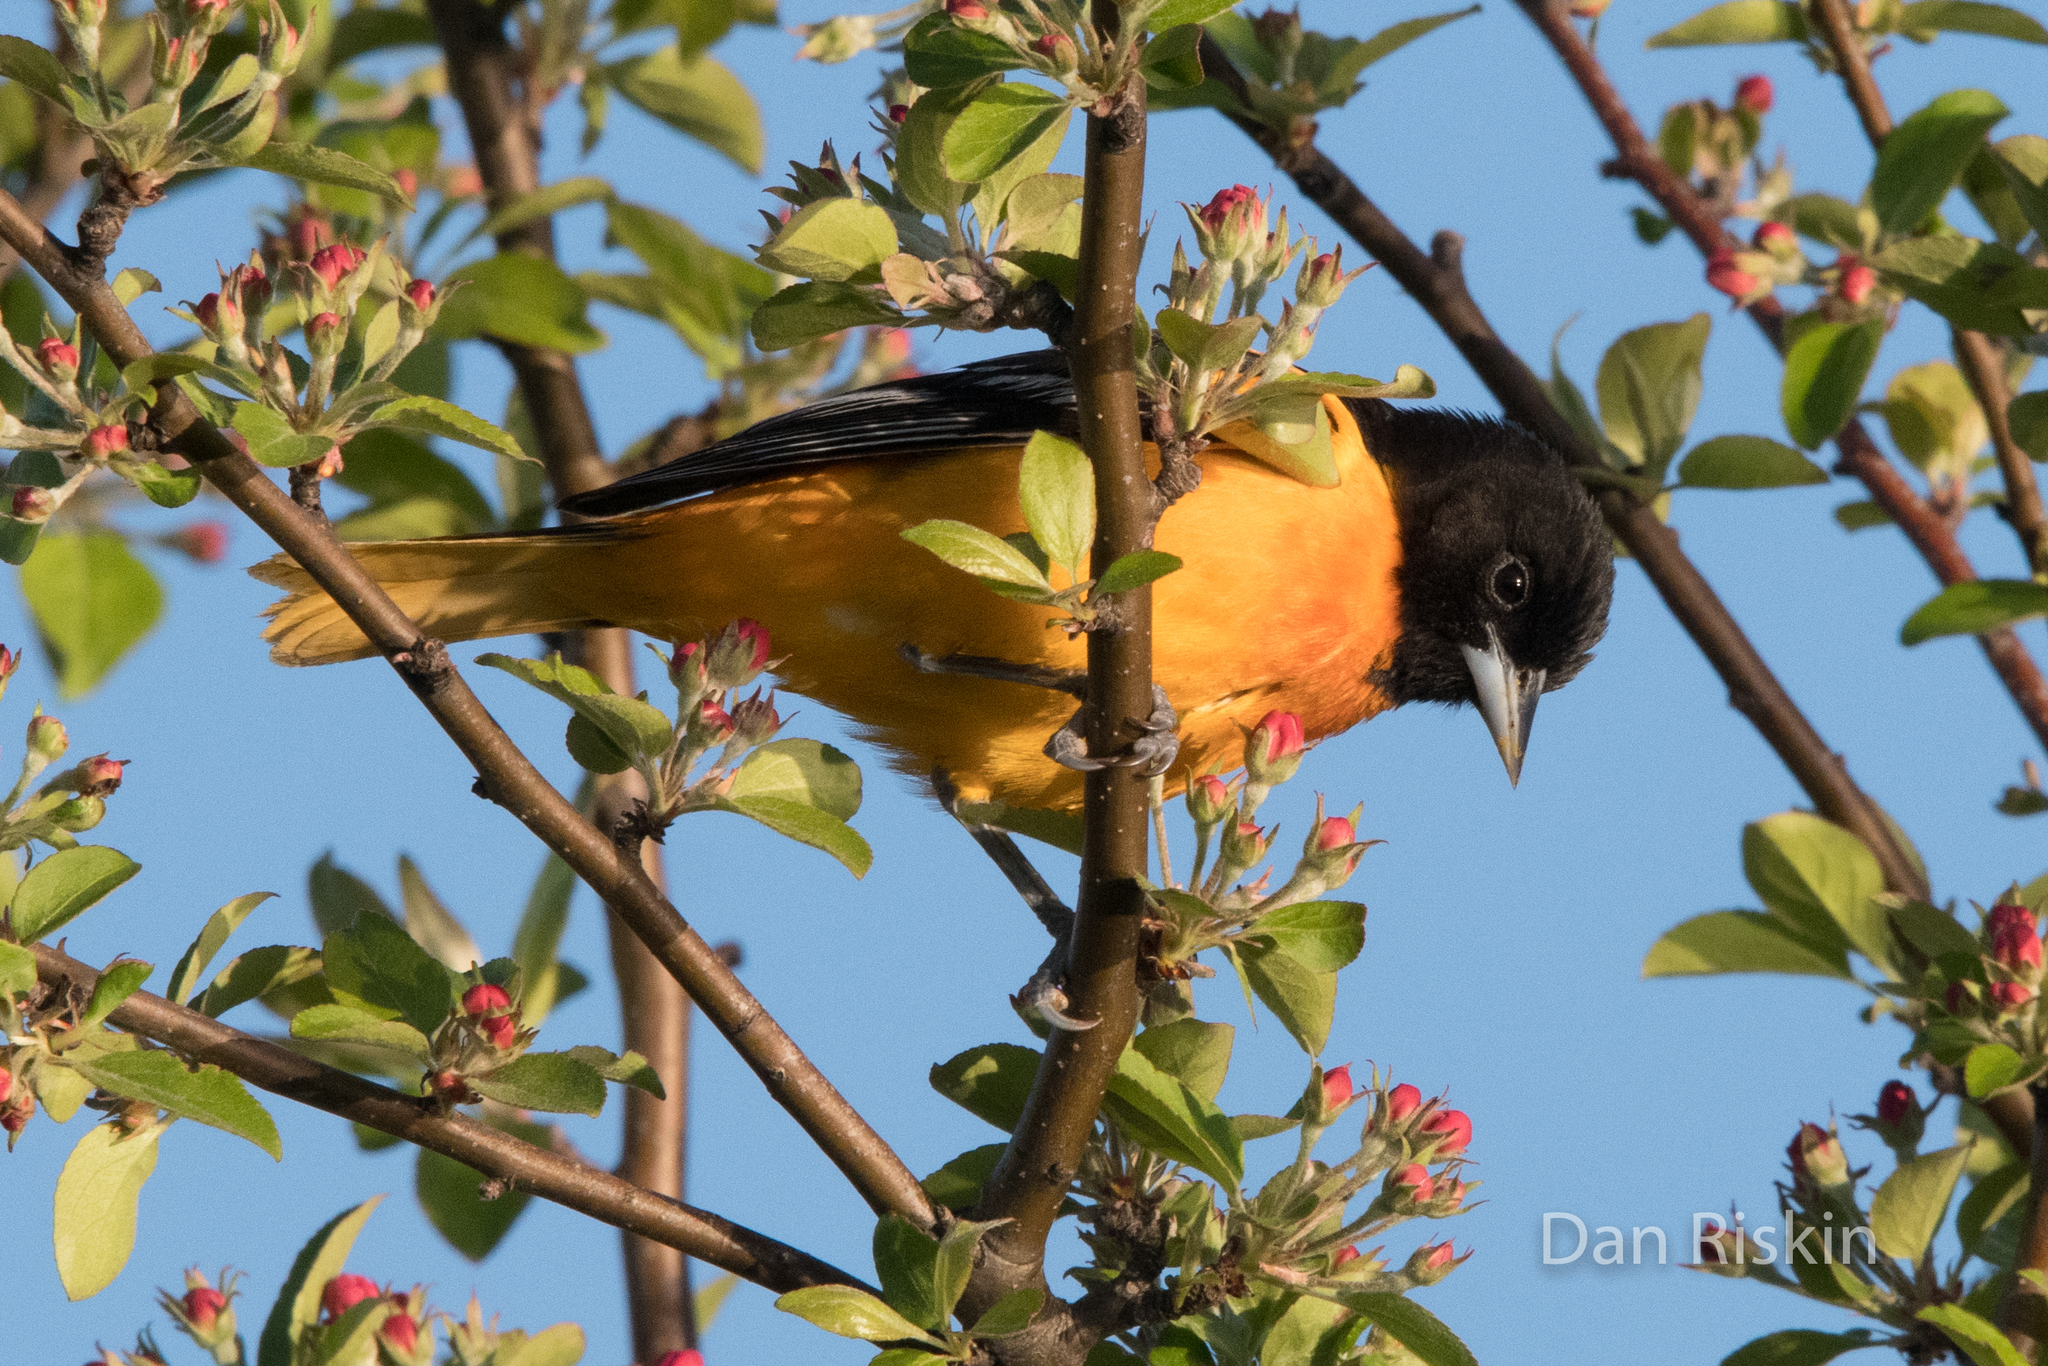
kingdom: Animalia
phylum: Chordata
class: Aves
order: Passeriformes
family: Icteridae
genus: Icterus
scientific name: Icterus galbula
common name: Baltimore oriole
